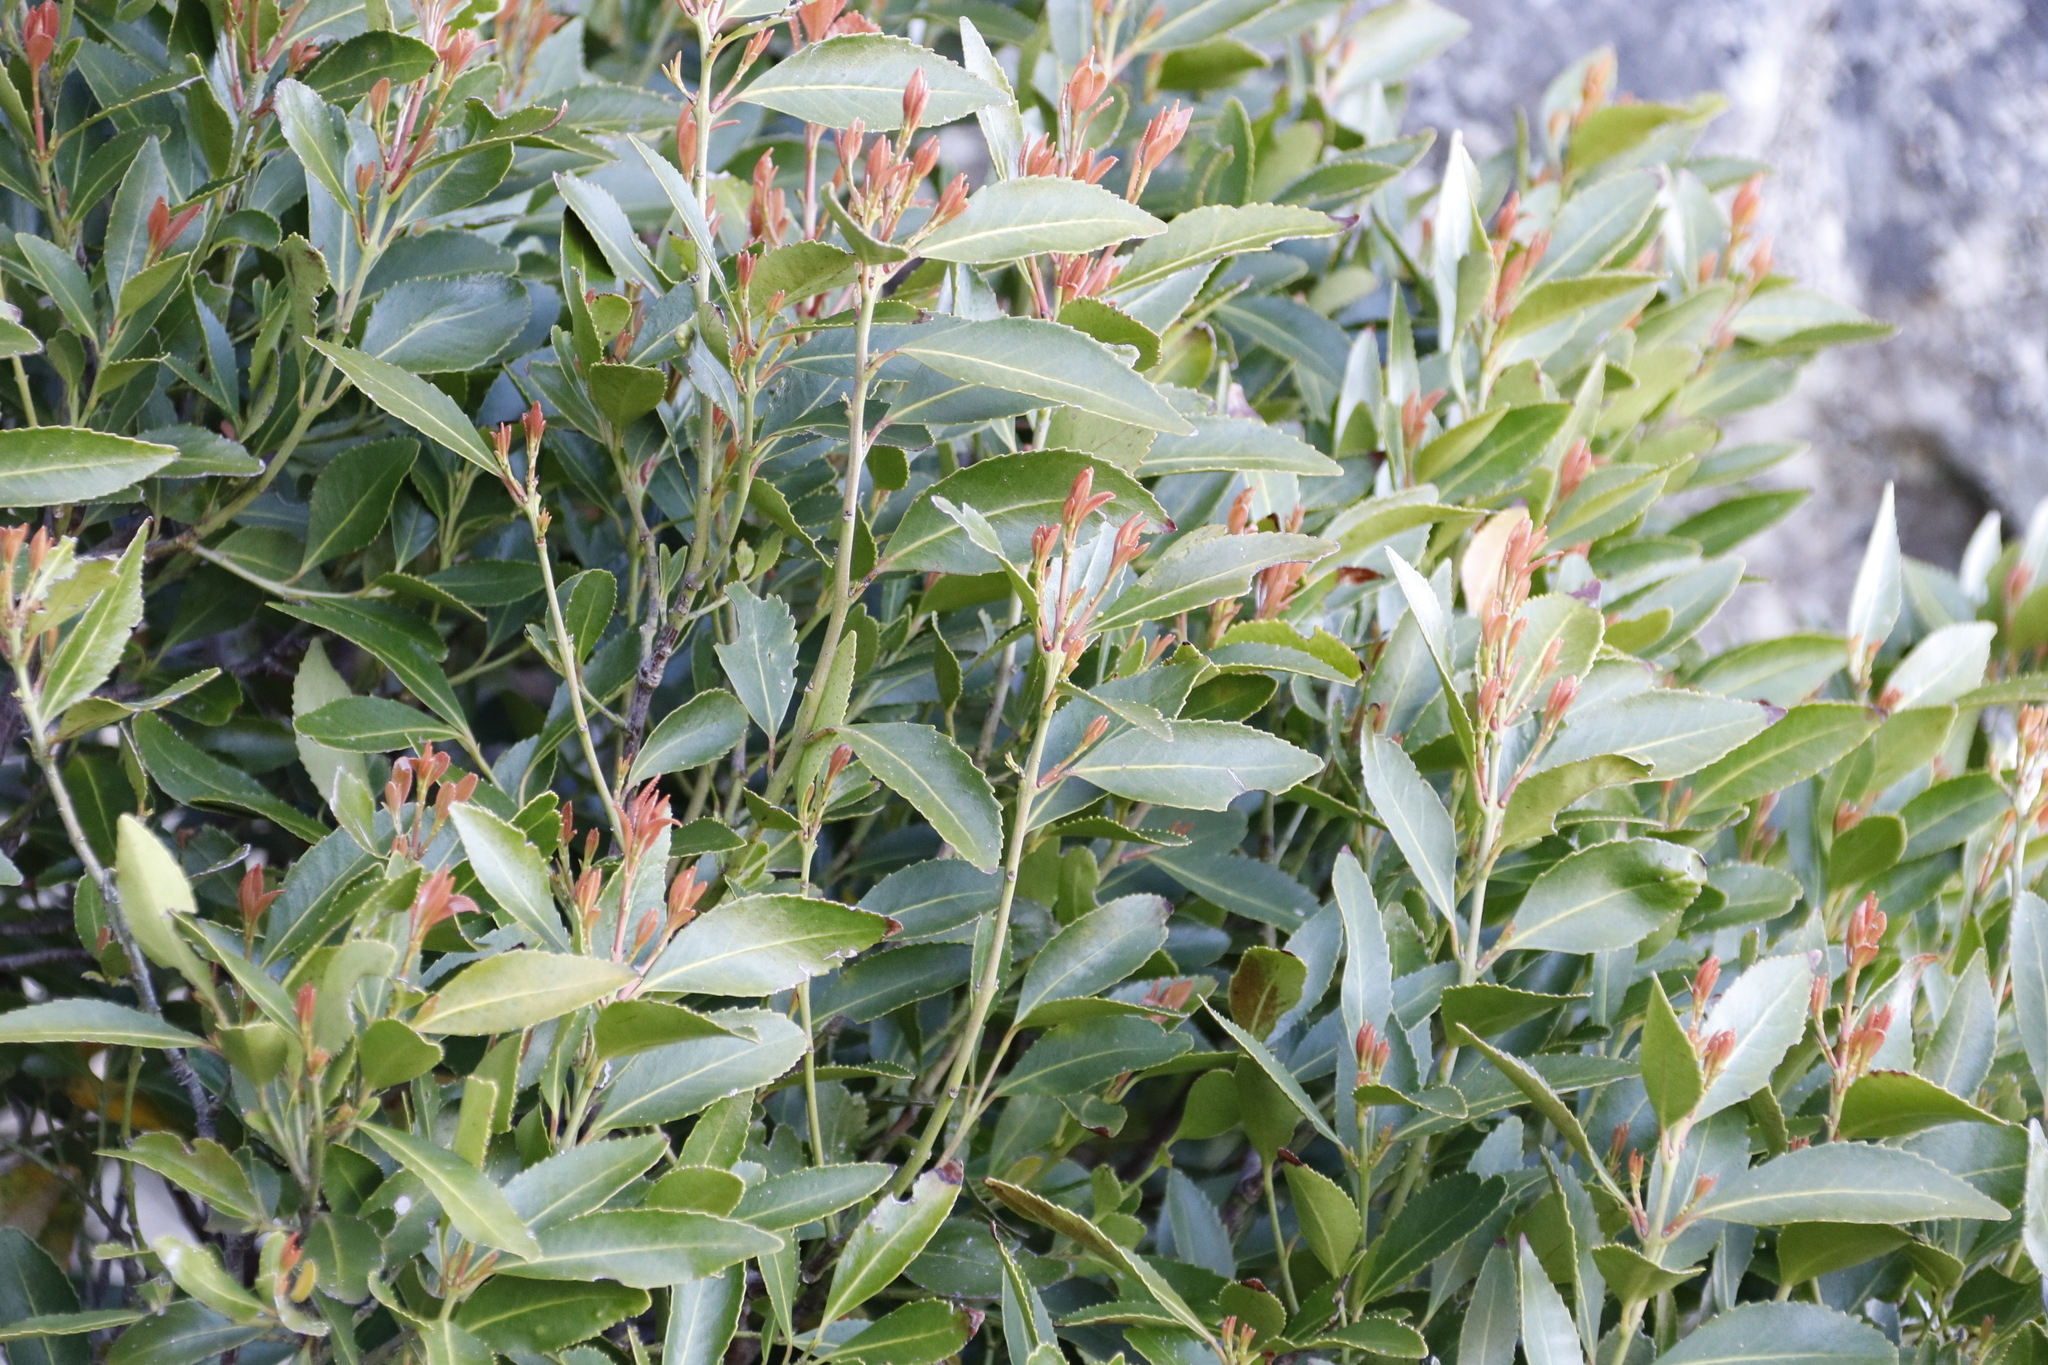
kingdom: Plantae
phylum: Tracheophyta
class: Magnoliopsida
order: Celastrales
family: Celastraceae
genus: Elaeodendron
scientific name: Elaeodendron schinoides
